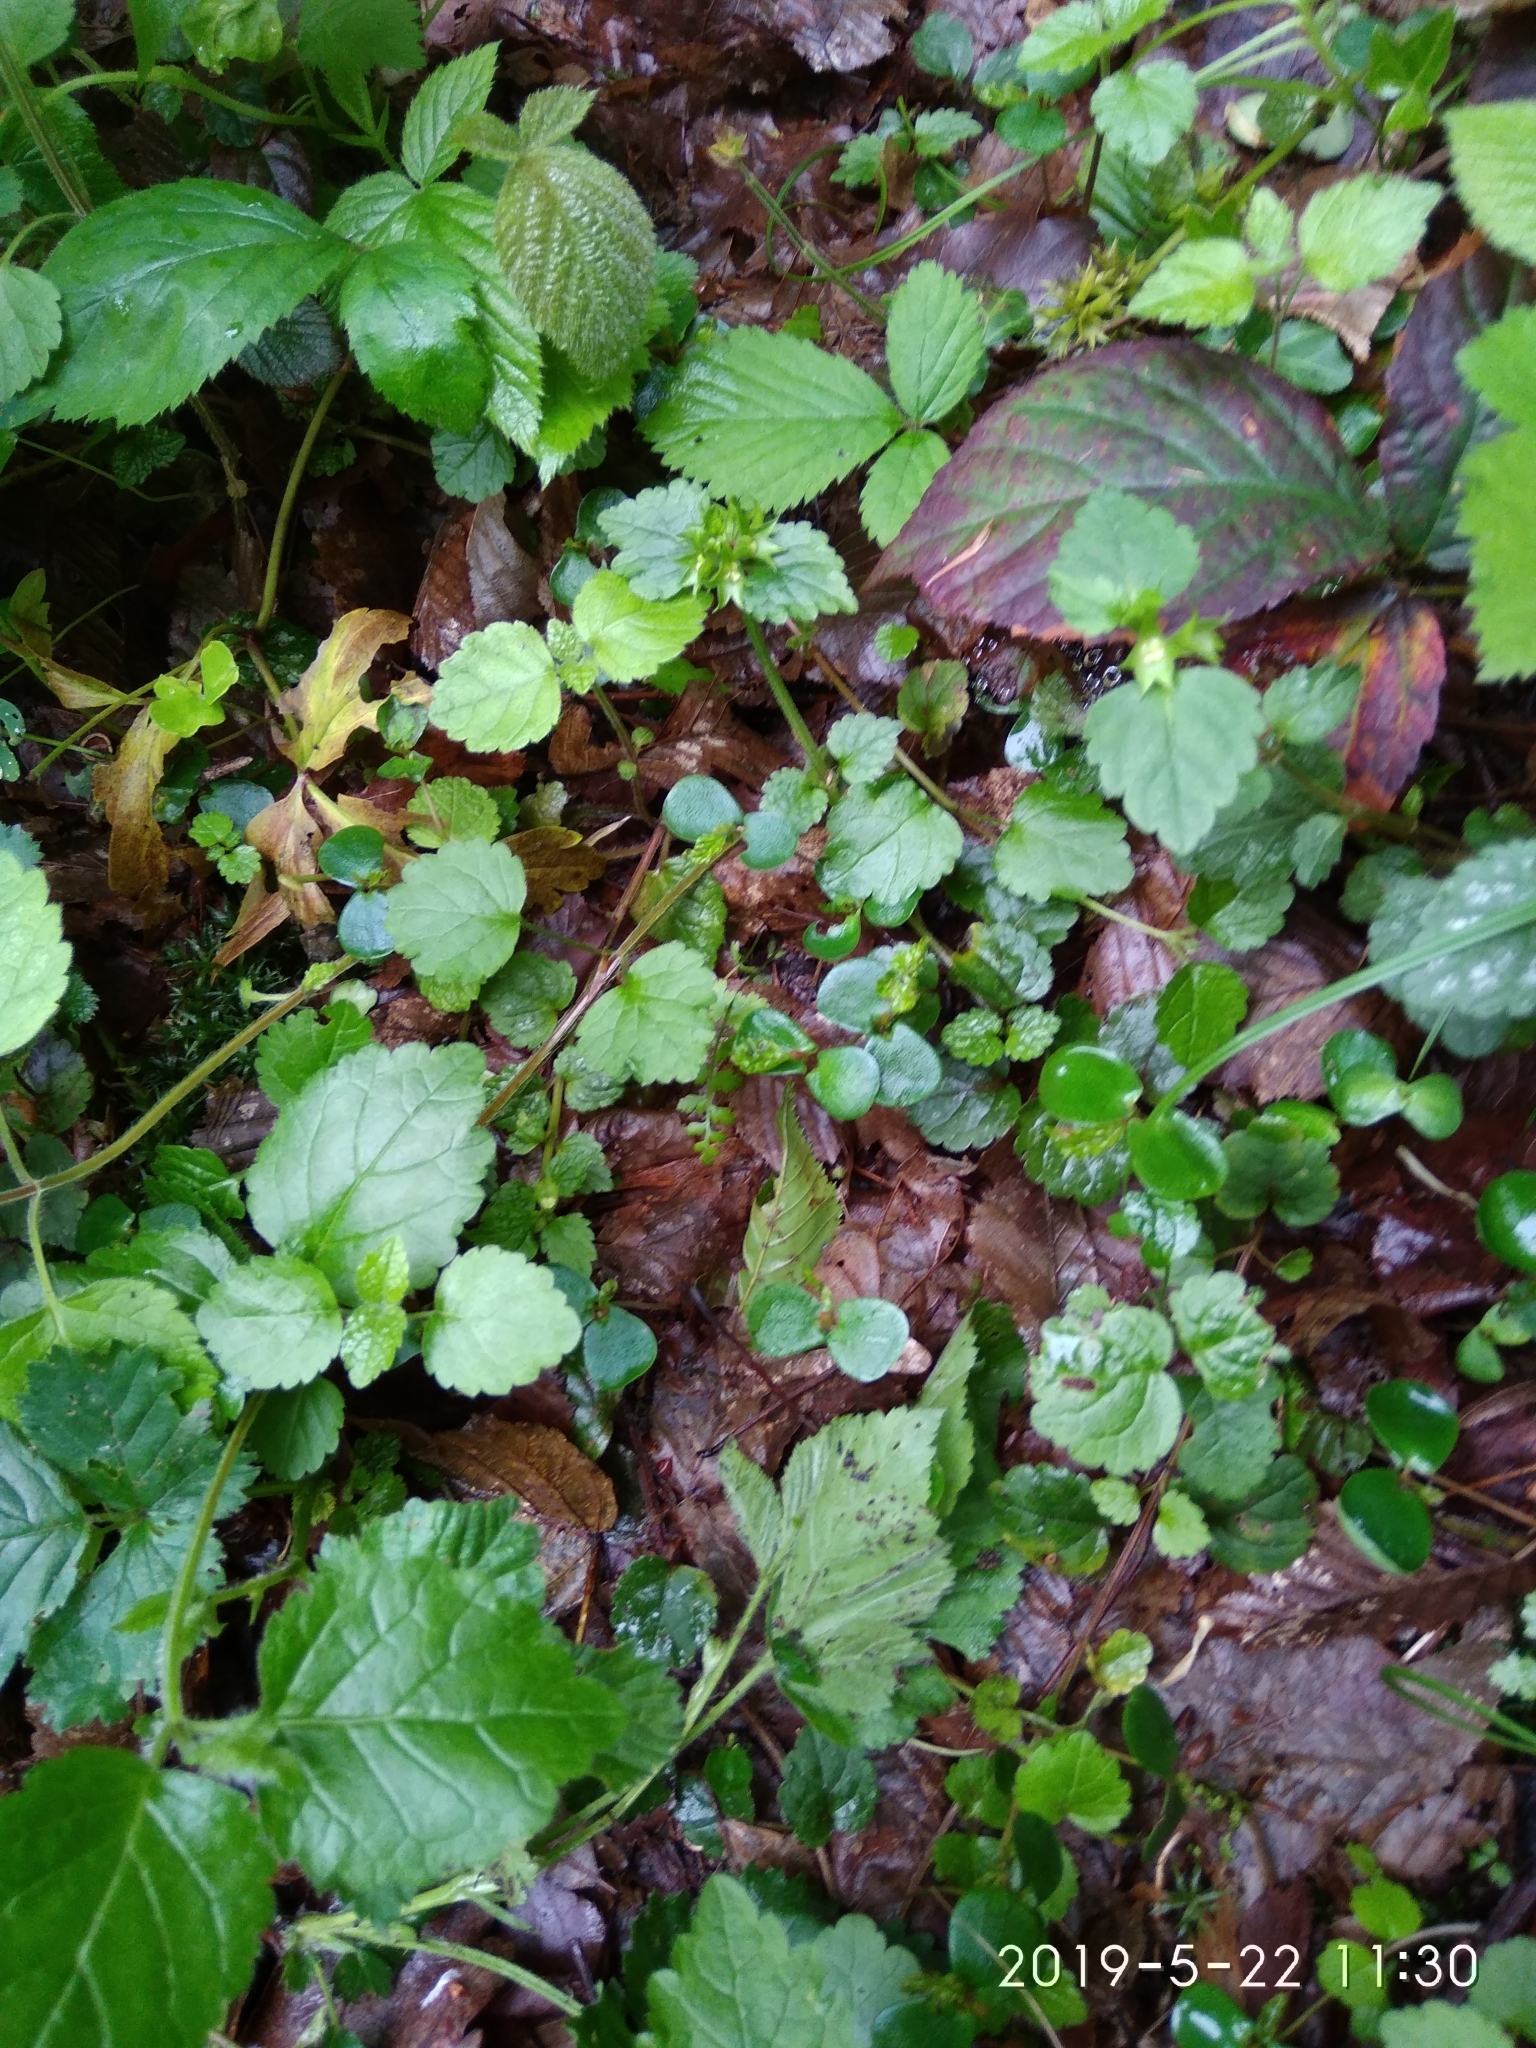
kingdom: Plantae
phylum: Tracheophyta
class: Magnoliopsida
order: Fagales
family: Betulaceae
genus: Carpinus
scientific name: Carpinus betulus
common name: Hornbeam
